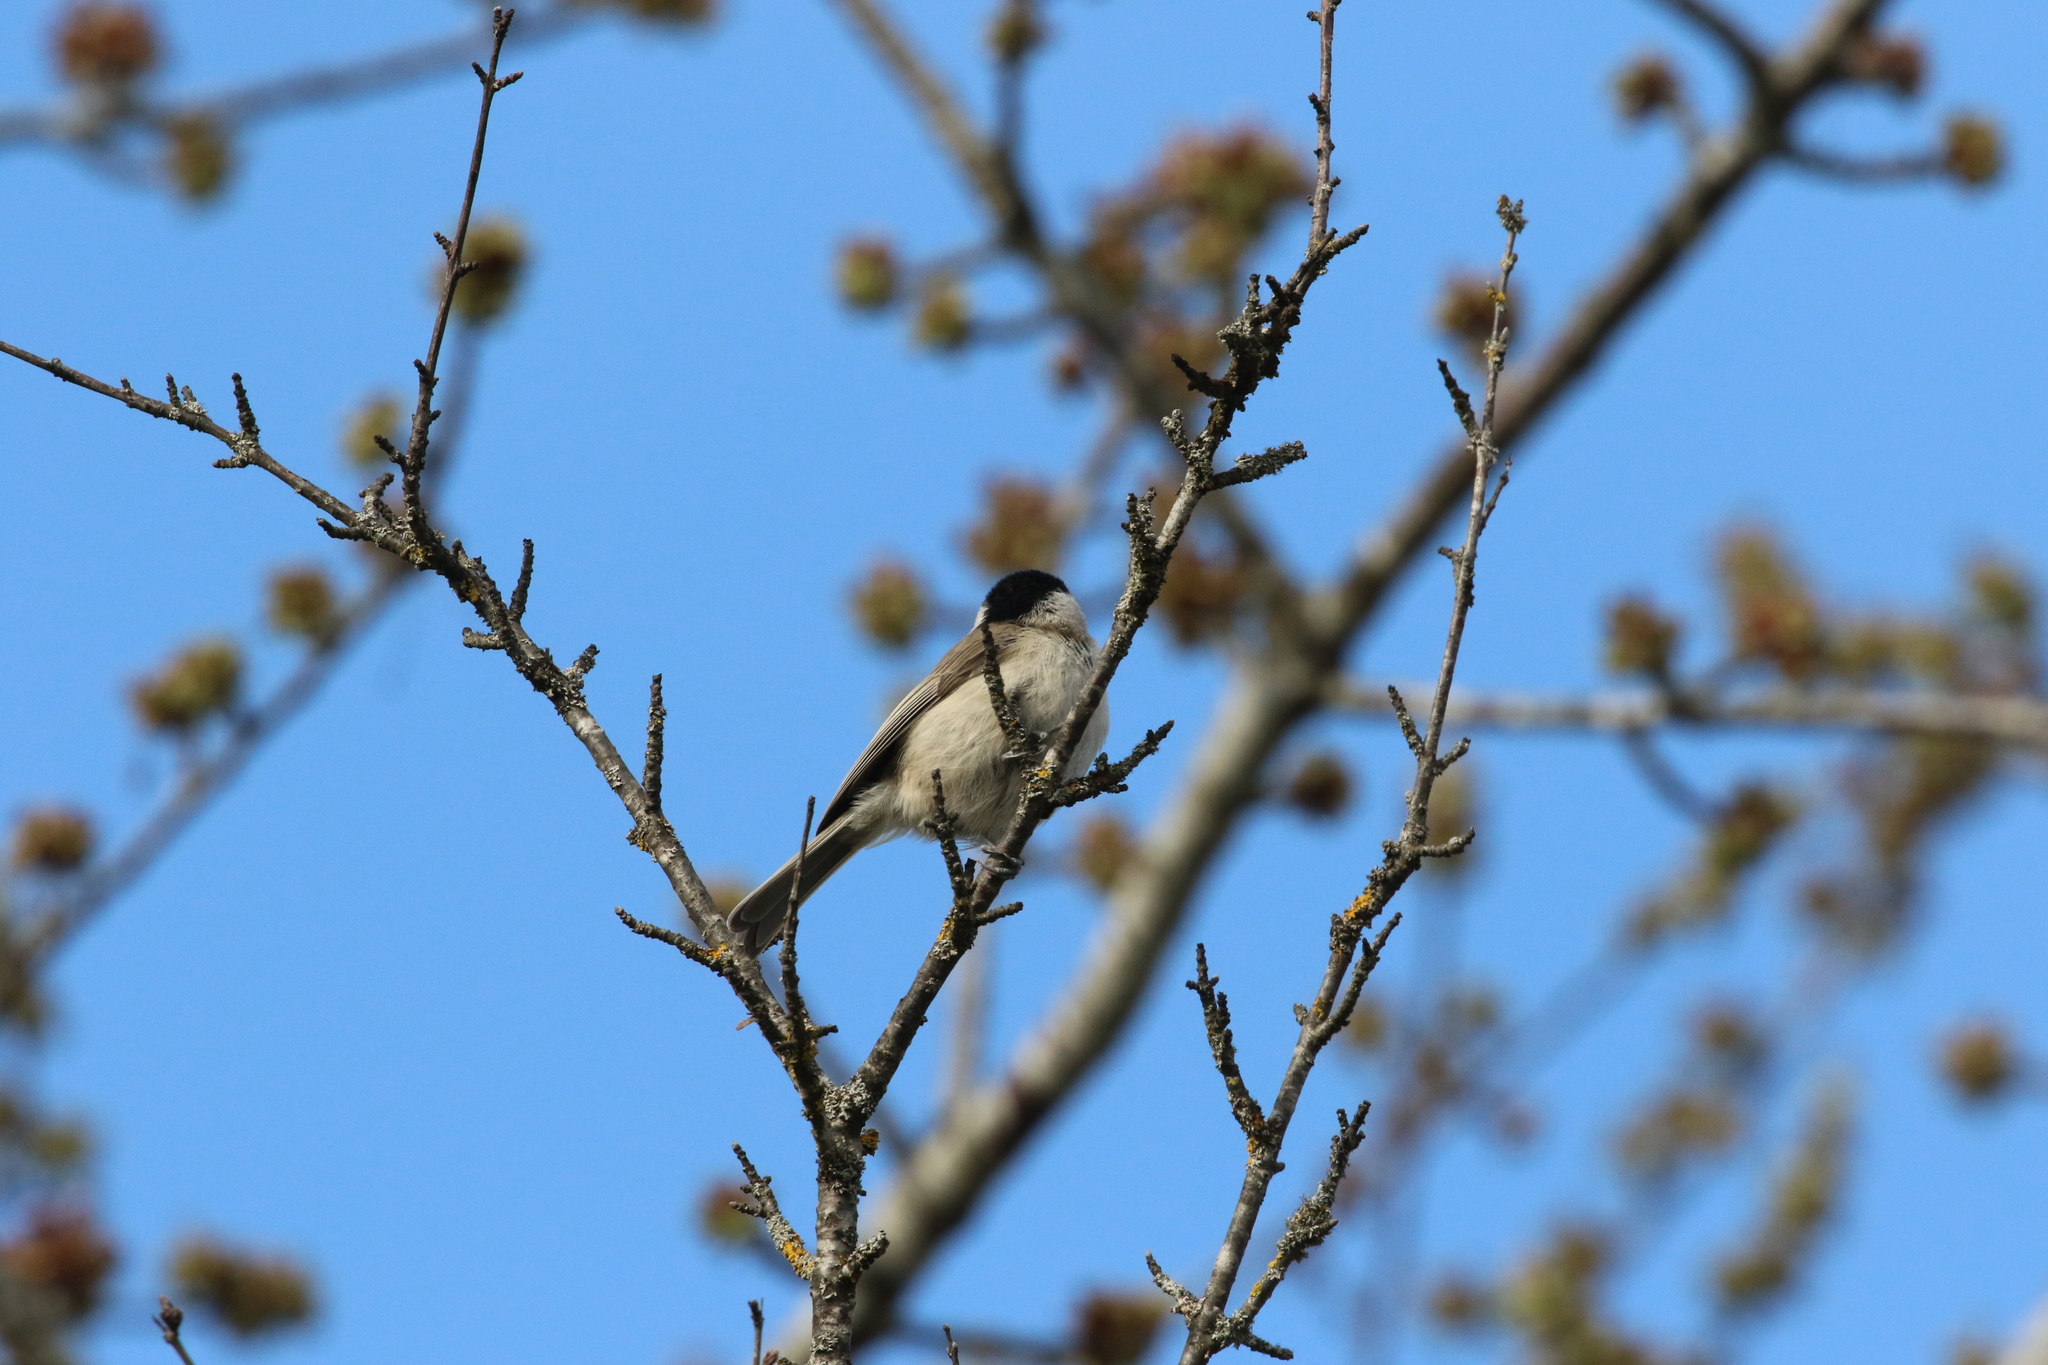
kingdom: Animalia
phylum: Chordata
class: Aves
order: Passeriformes
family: Paridae
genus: Poecile
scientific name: Poecile palustris
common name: Marsh tit
